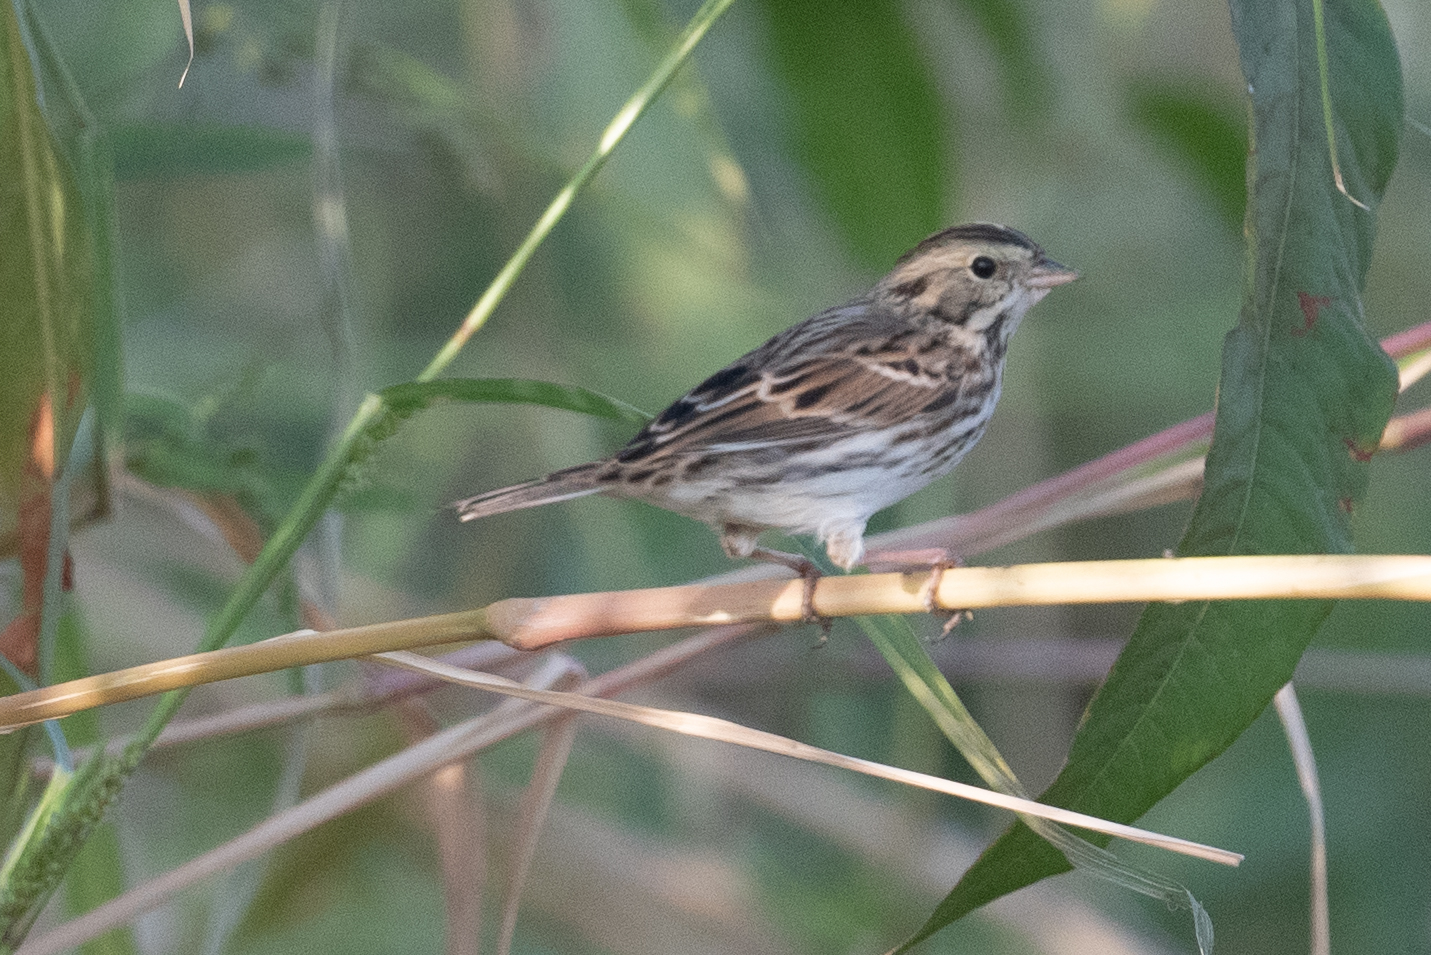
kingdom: Animalia
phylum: Chordata
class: Aves
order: Passeriformes
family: Passerellidae
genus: Passerculus
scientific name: Passerculus sandwichensis
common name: Savannah sparrow
